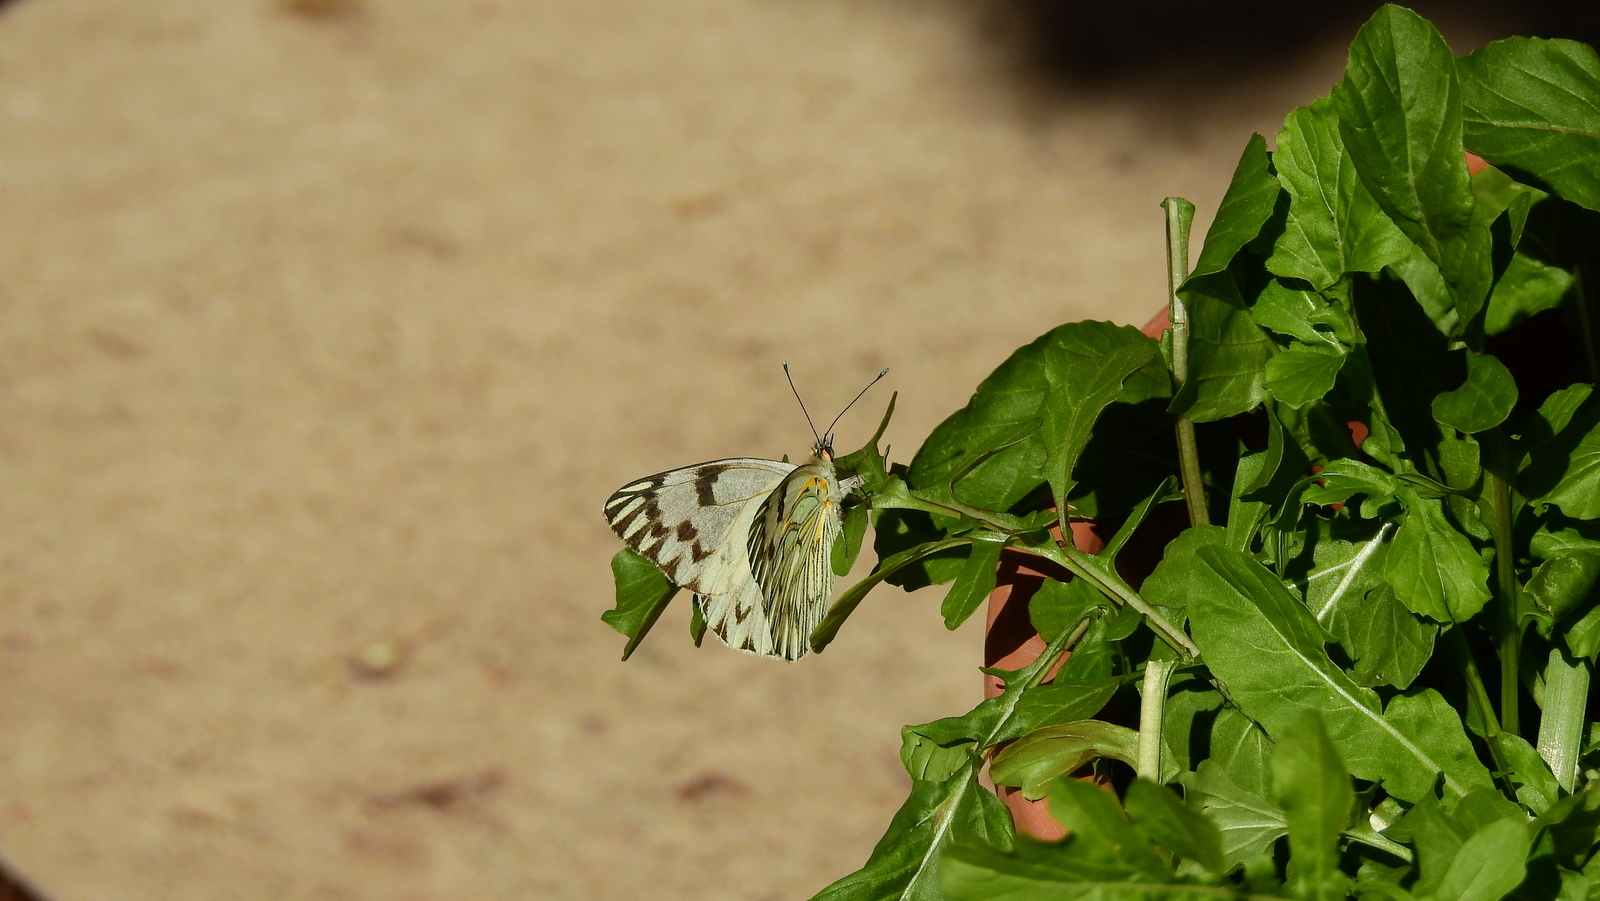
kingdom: Animalia
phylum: Arthropoda
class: Insecta
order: Lepidoptera
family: Pieridae
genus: Tatochila
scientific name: Tatochila autodice
